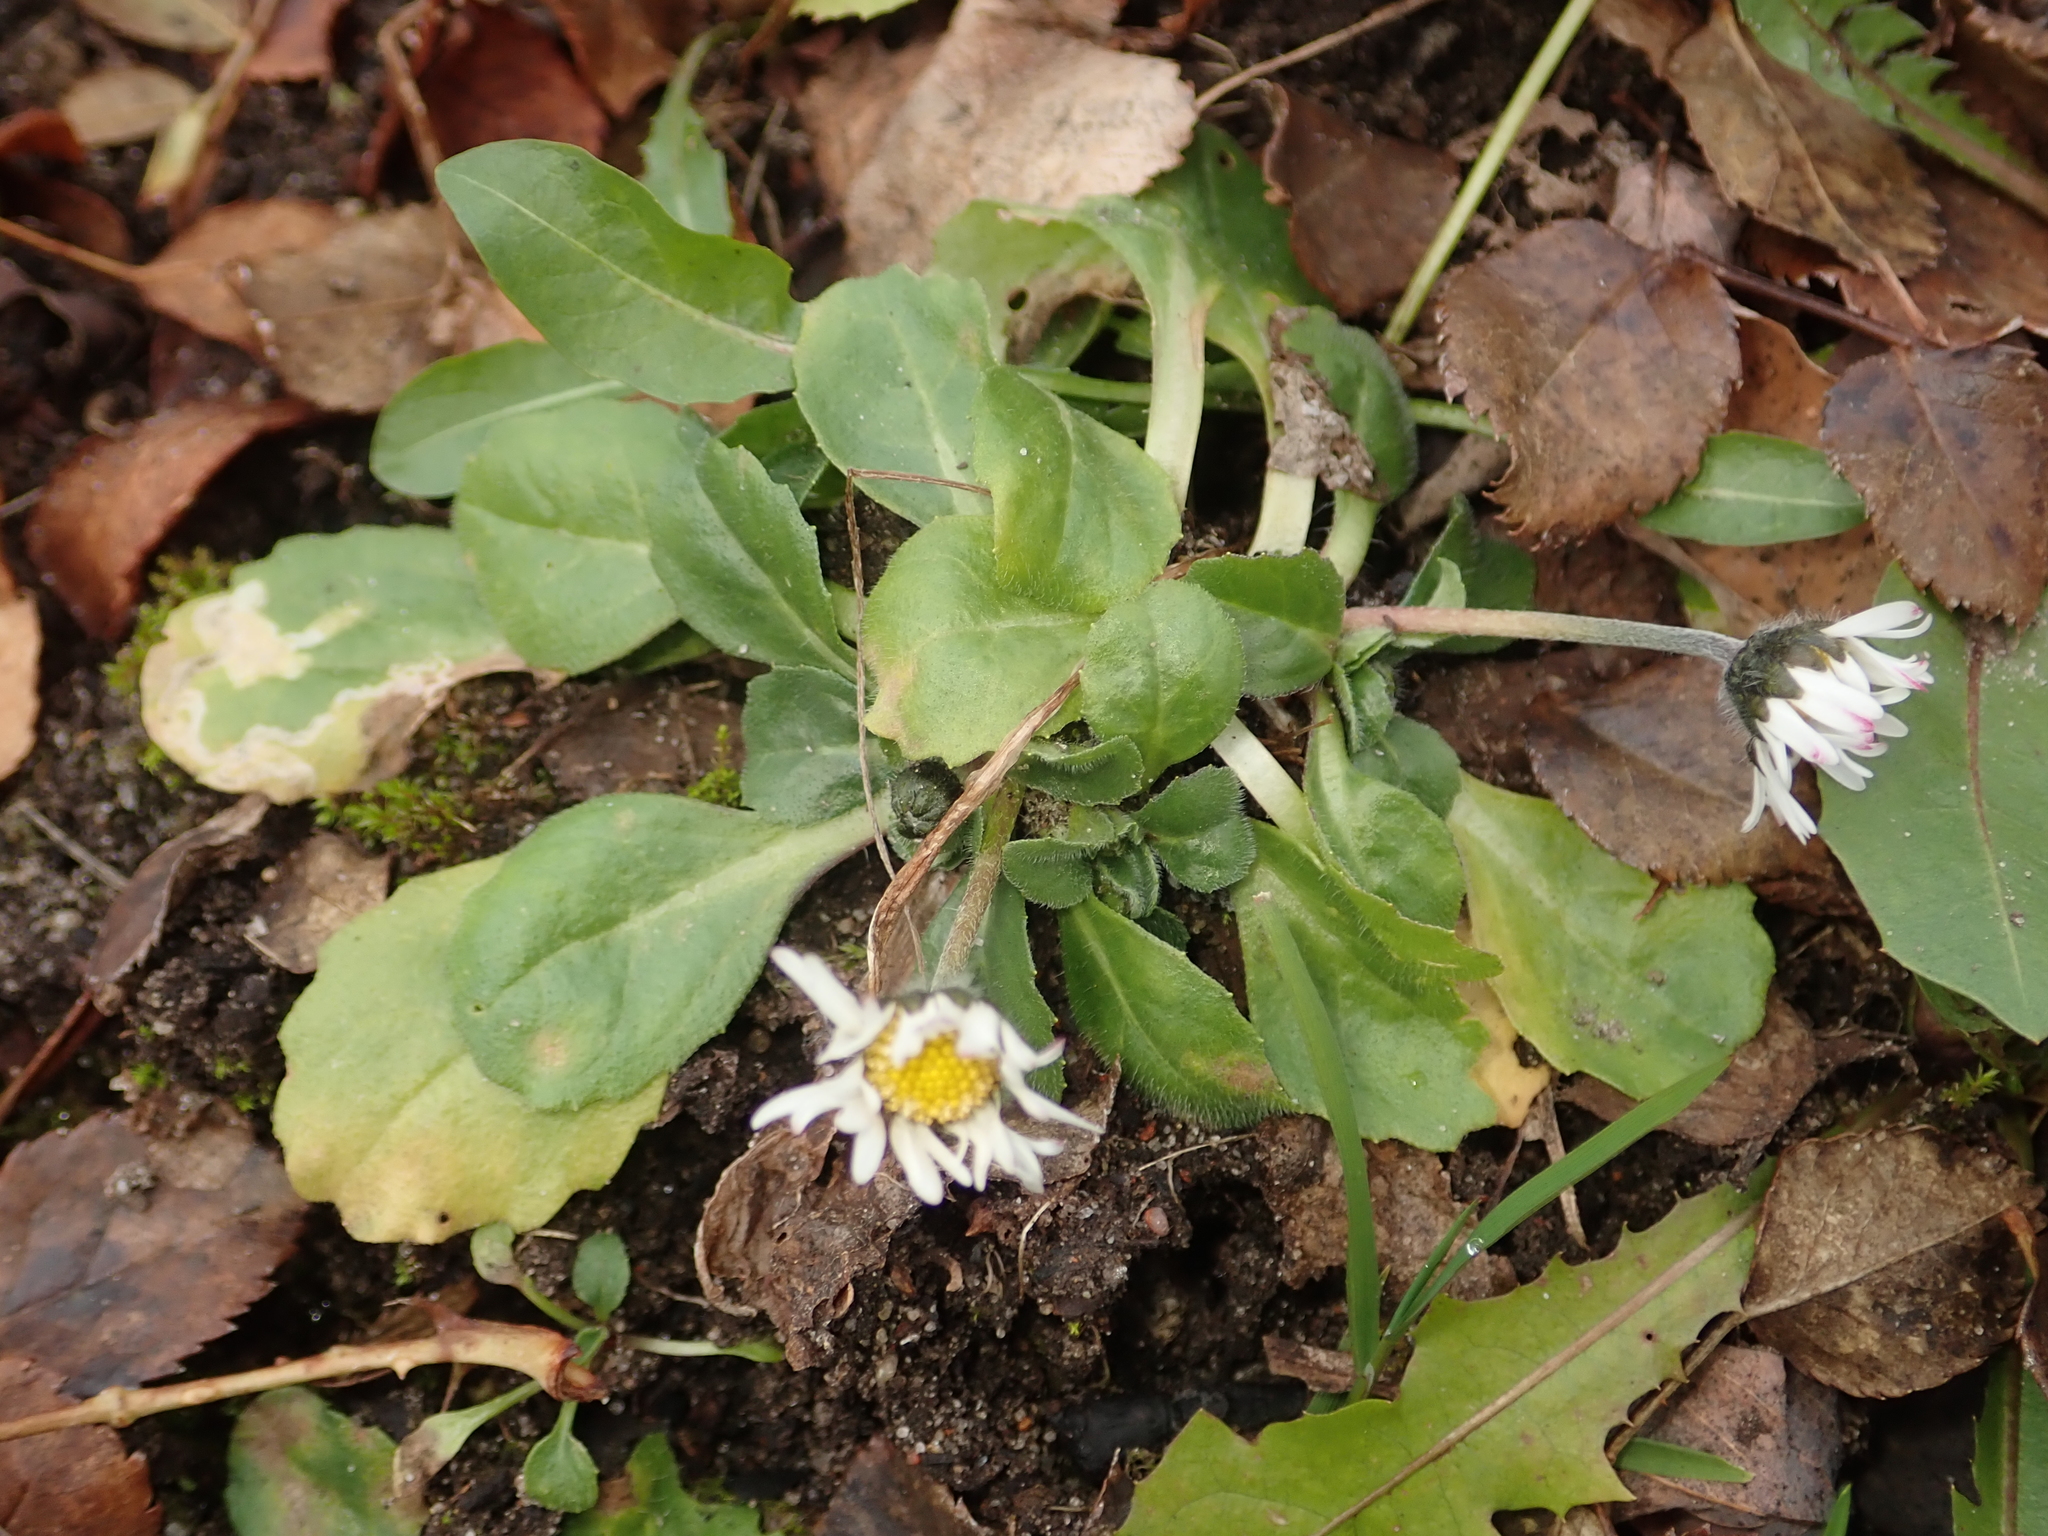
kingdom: Plantae
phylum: Tracheophyta
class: Magnoliopsida
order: Asterales
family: Asteraceae
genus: Bellis
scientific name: Bellis perennis
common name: Lawndaisy
